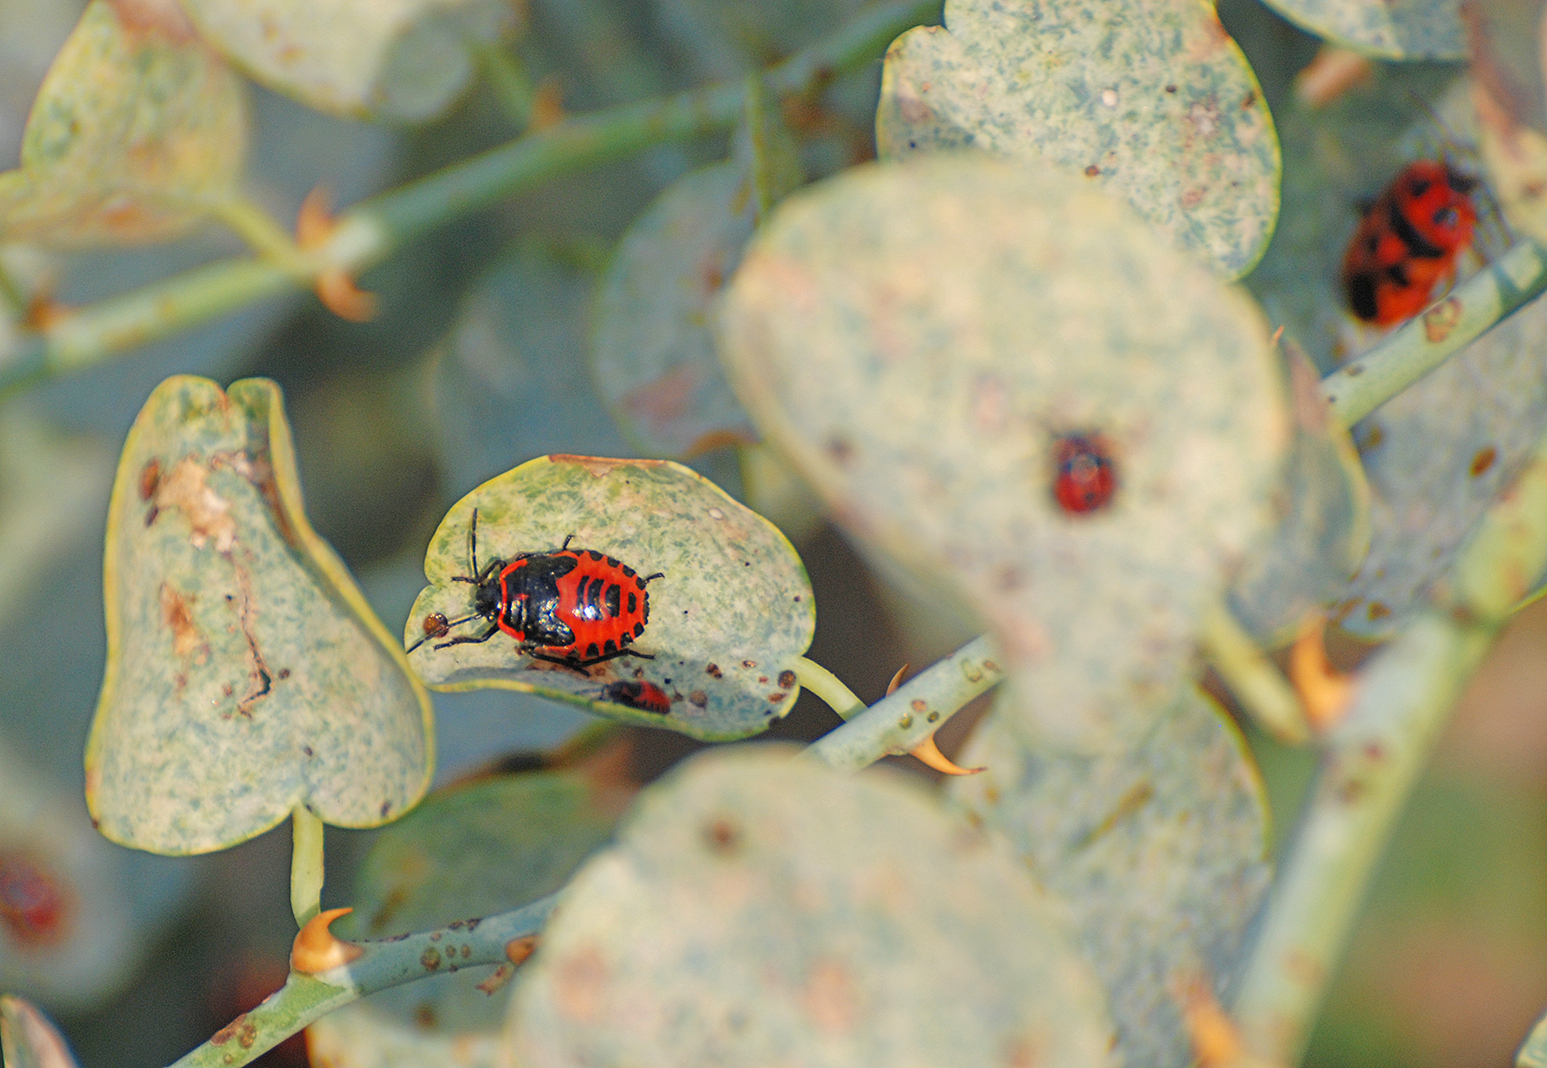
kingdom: Animalia
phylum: Arthropoda
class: Insecta
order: Hemiptera
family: Pentatomidae
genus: Eurydema
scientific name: Eurydema spectabilis
